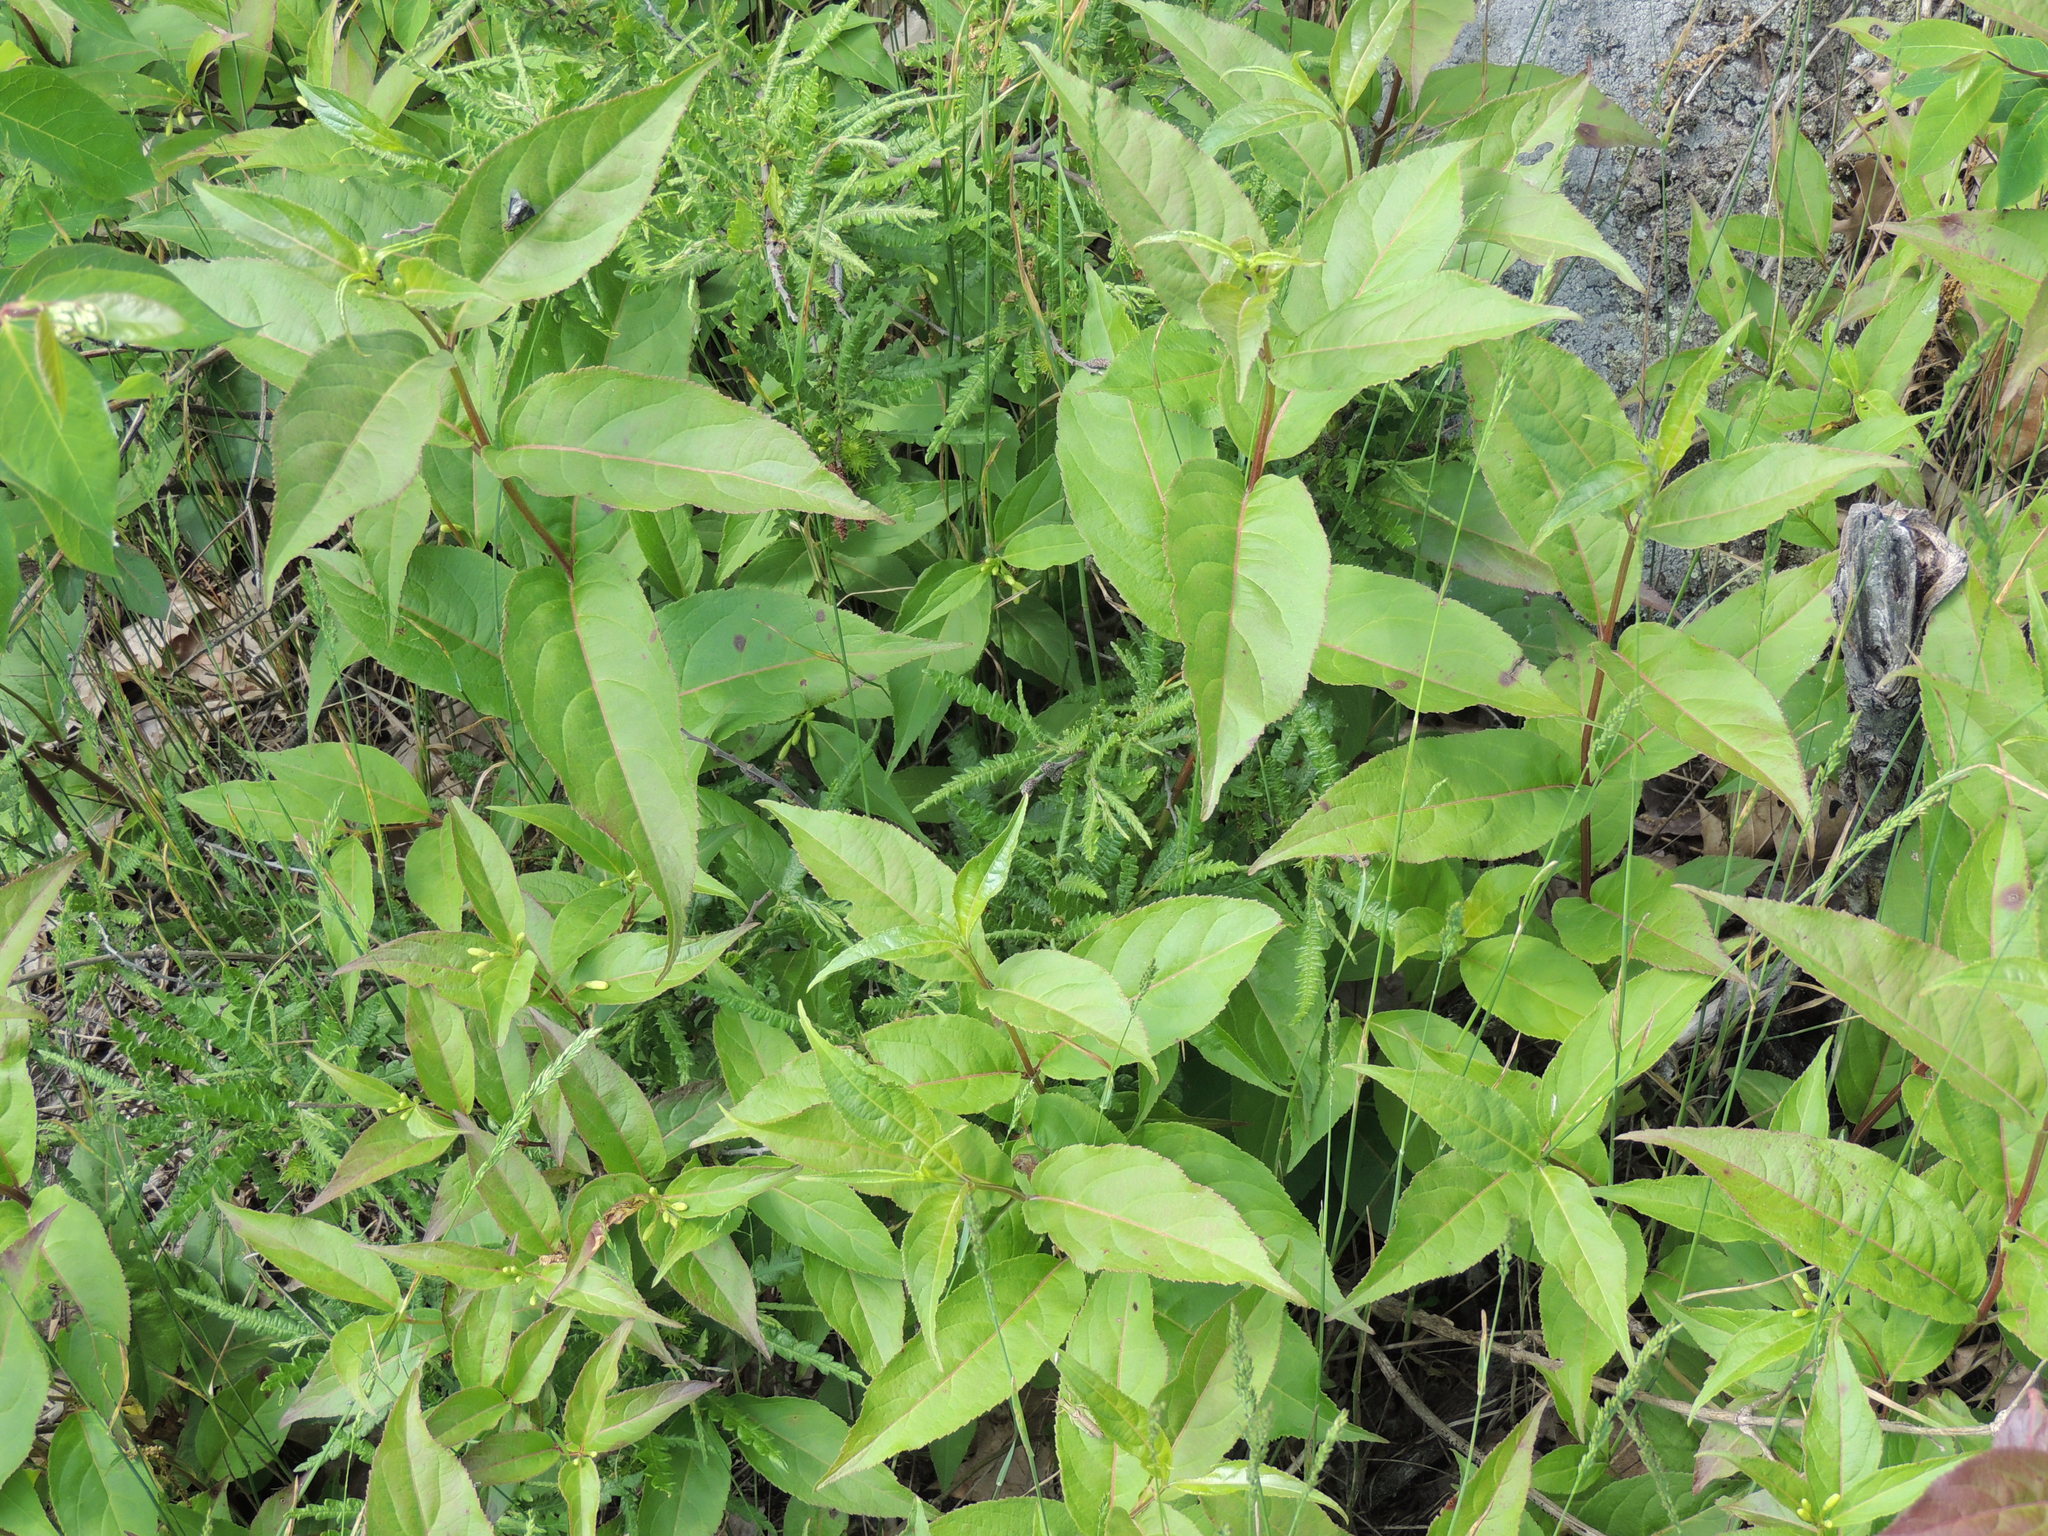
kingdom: Plantae
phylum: Tracheophyta
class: Magnoliopsida
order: Dipsacales
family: Caprifoliaceae
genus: Diervilla
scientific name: Diervilla lonicera
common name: Bush-honeysuckle
